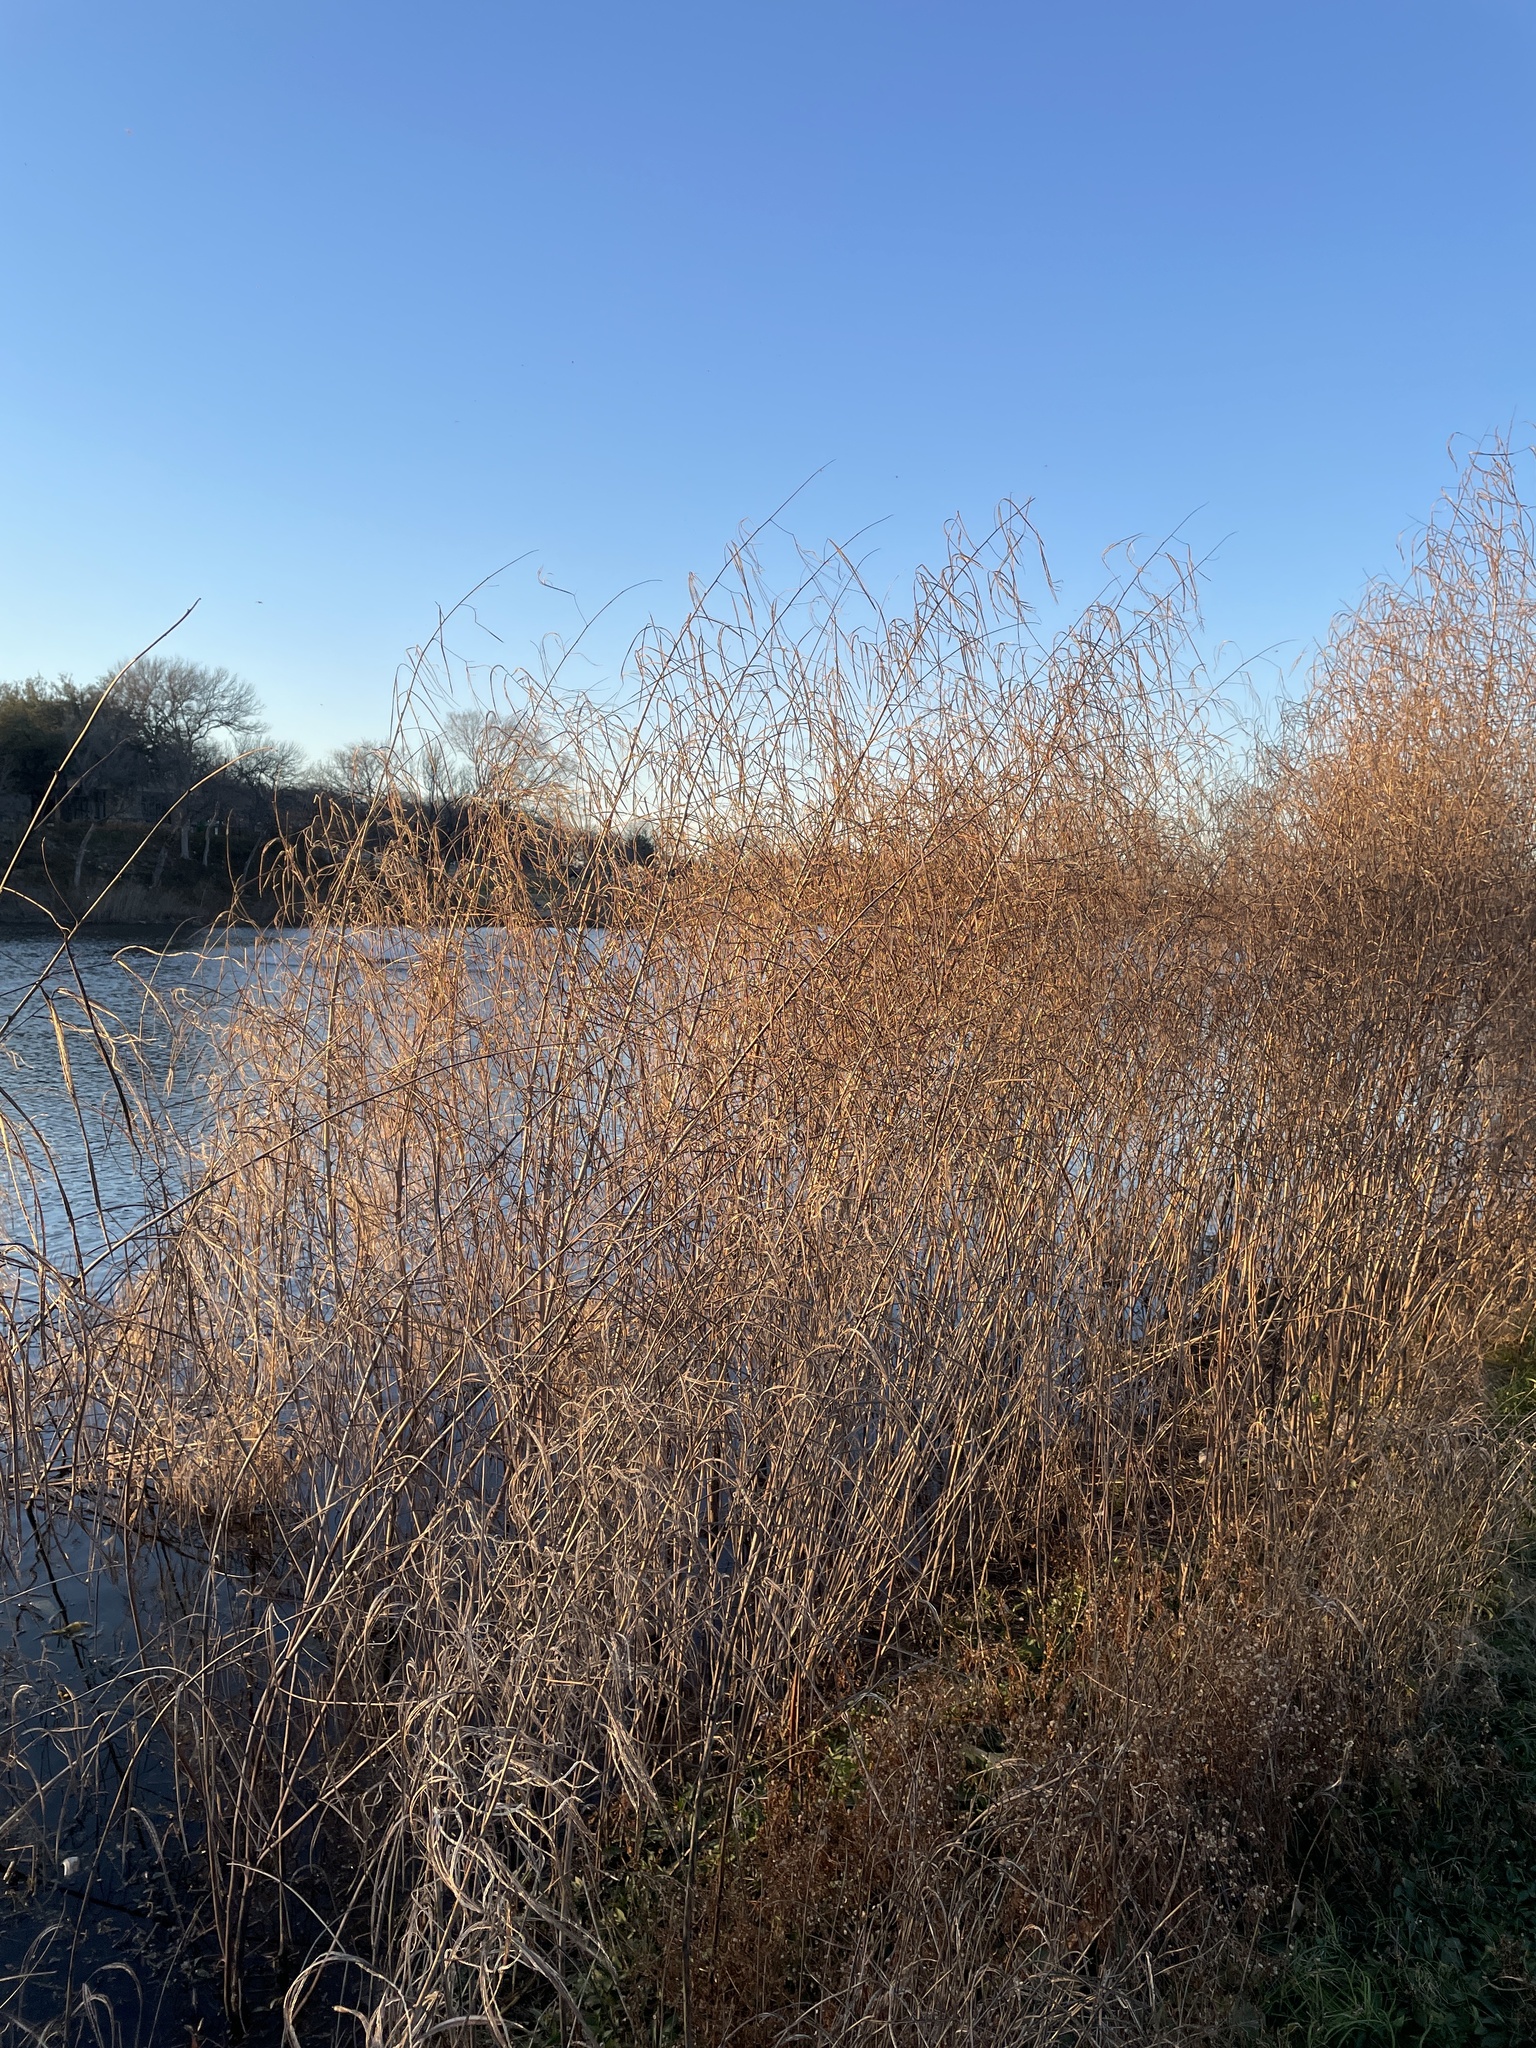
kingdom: Plantae
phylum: Tracheophyta
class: Magnoliopsida
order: Fabales
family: Fabaceae
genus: Sesbania
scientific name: Sesbania herbacea
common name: Bigpod sesbania
